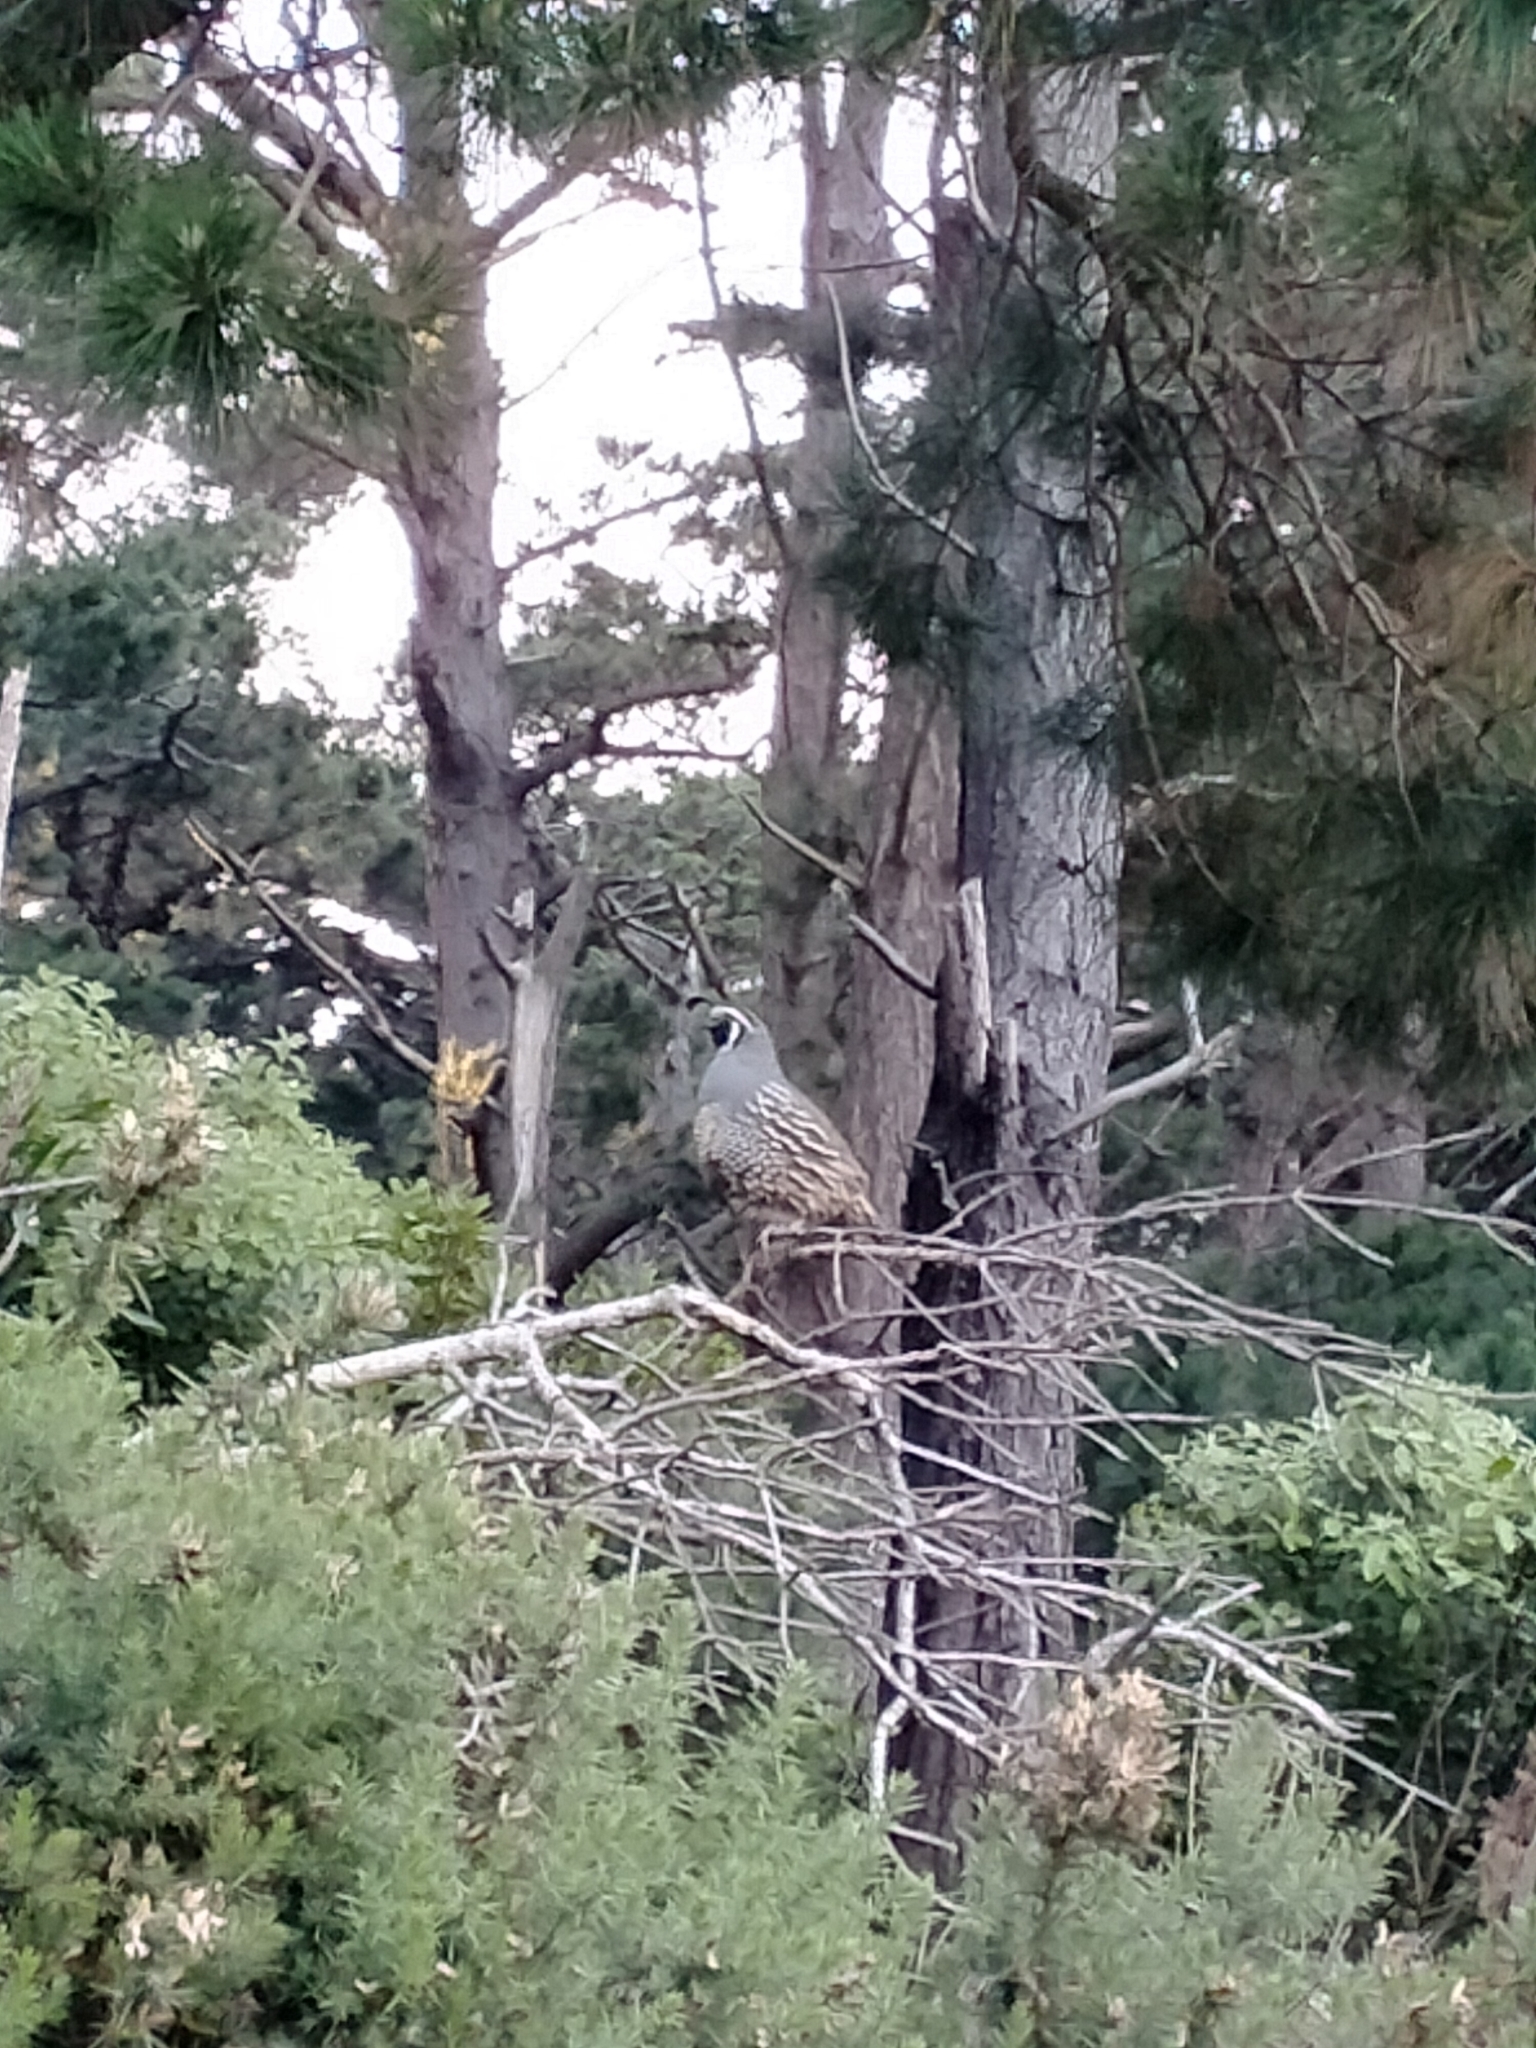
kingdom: Animalia
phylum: Chordata
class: Aves
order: Galliformes
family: Odontophoridae
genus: Callipepla
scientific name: Callipepla californica
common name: California quail
